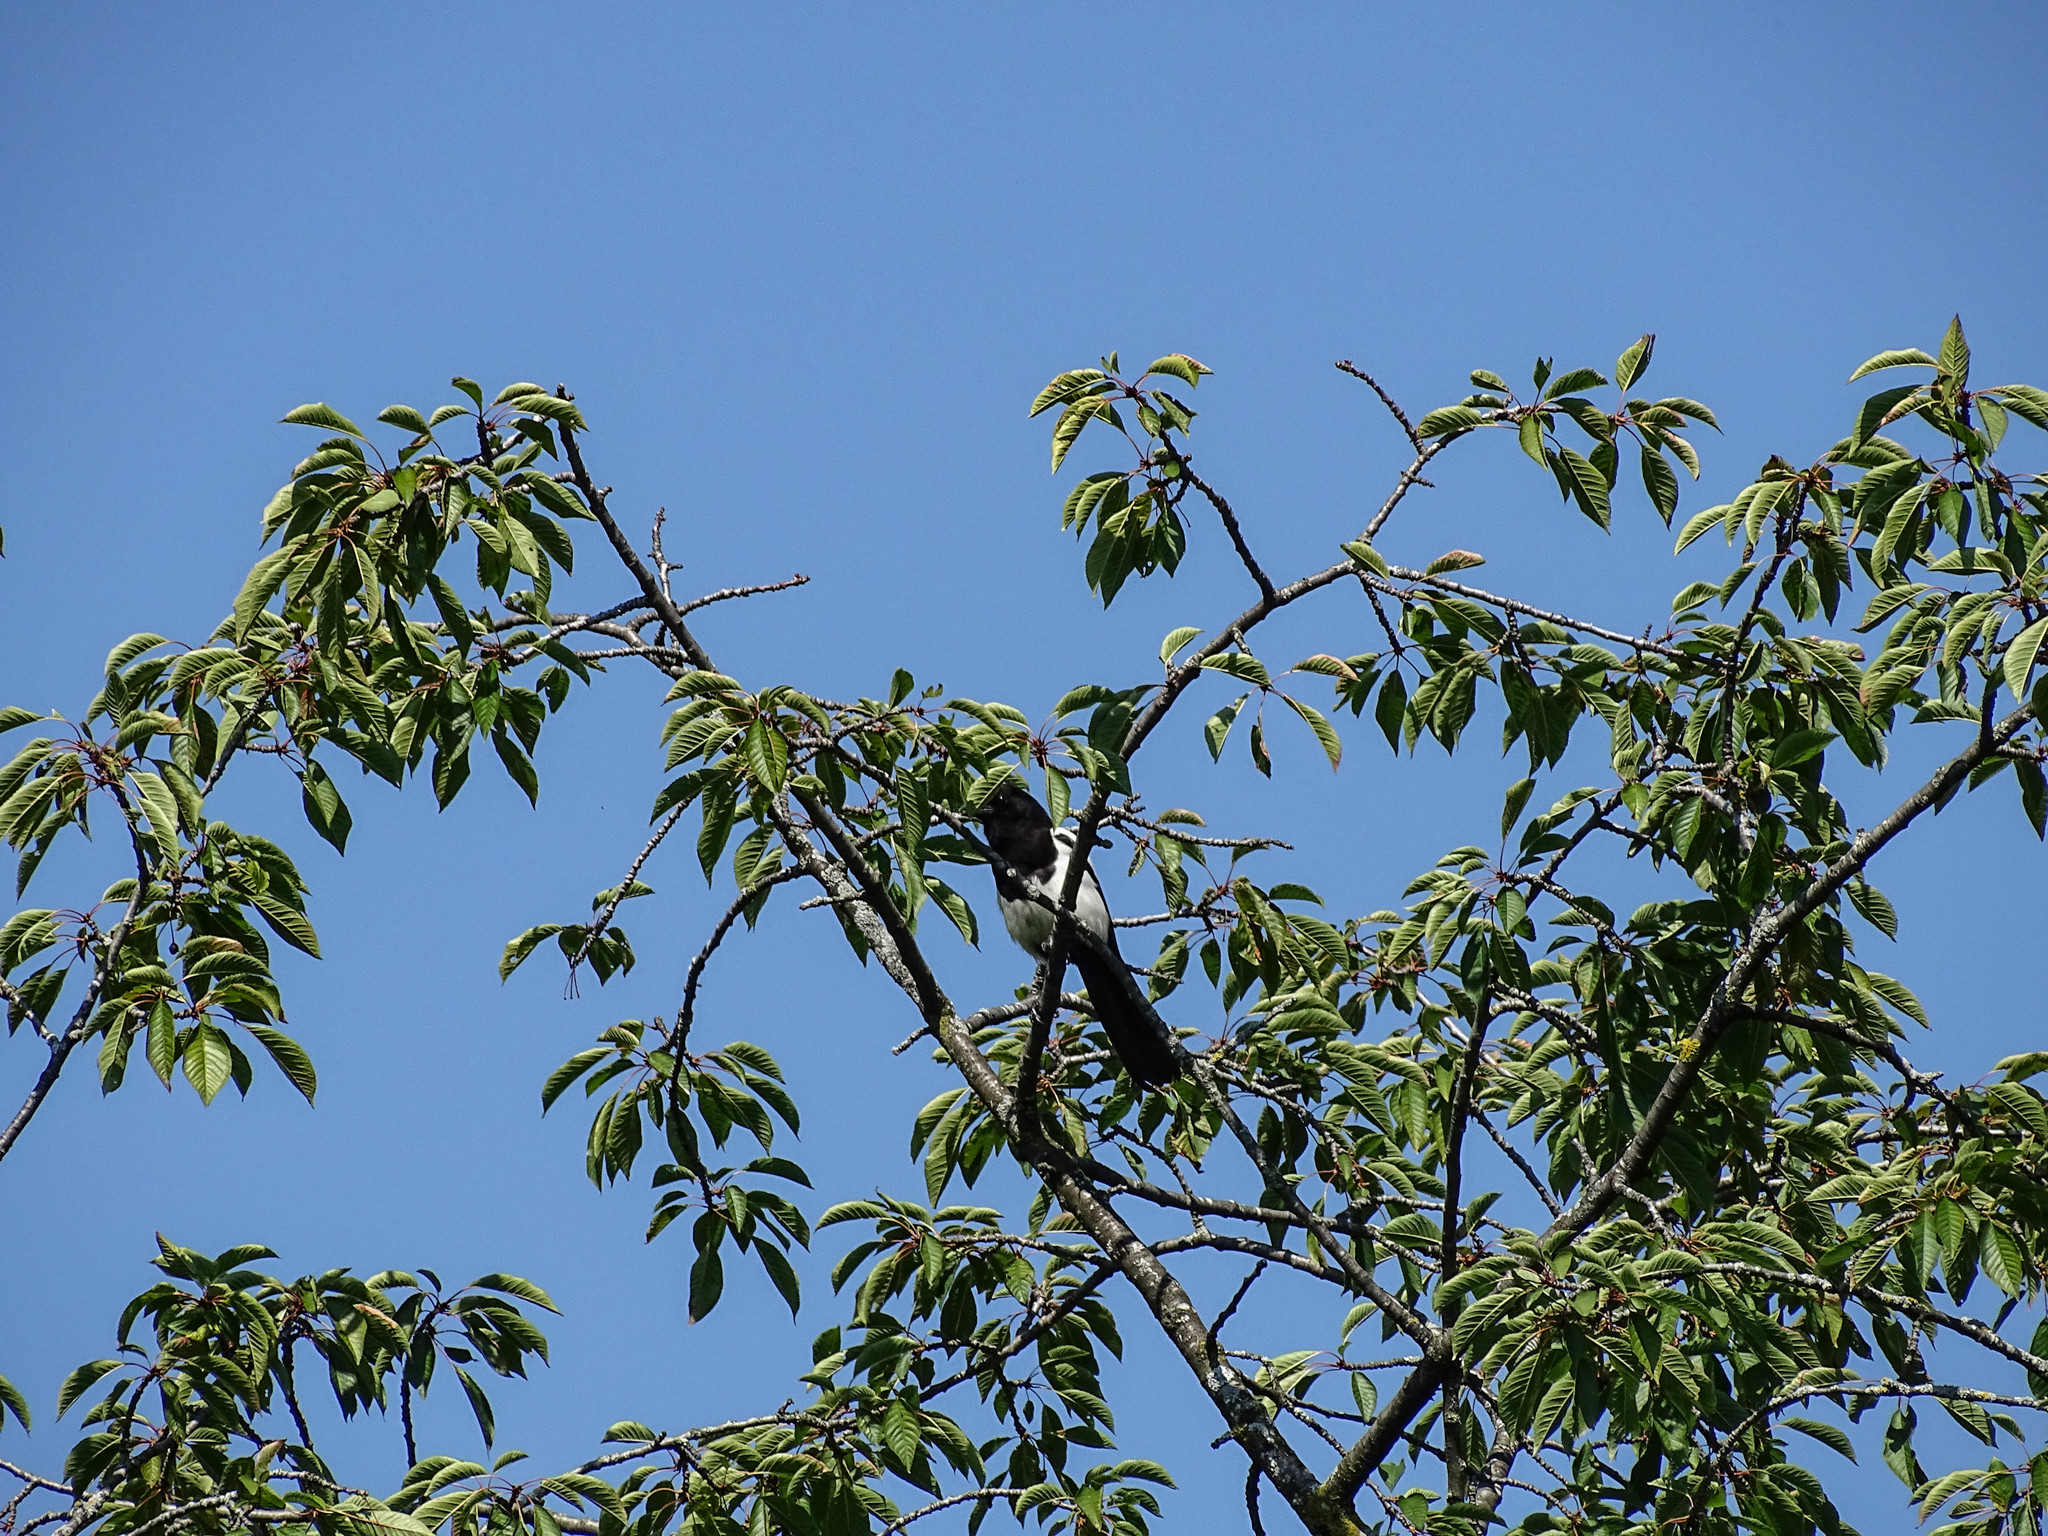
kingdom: Animalia
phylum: Chordata
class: Aves
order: Passeriformes
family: Corvidae
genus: Pica
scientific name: Pica pica
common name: Eurasian magpie
